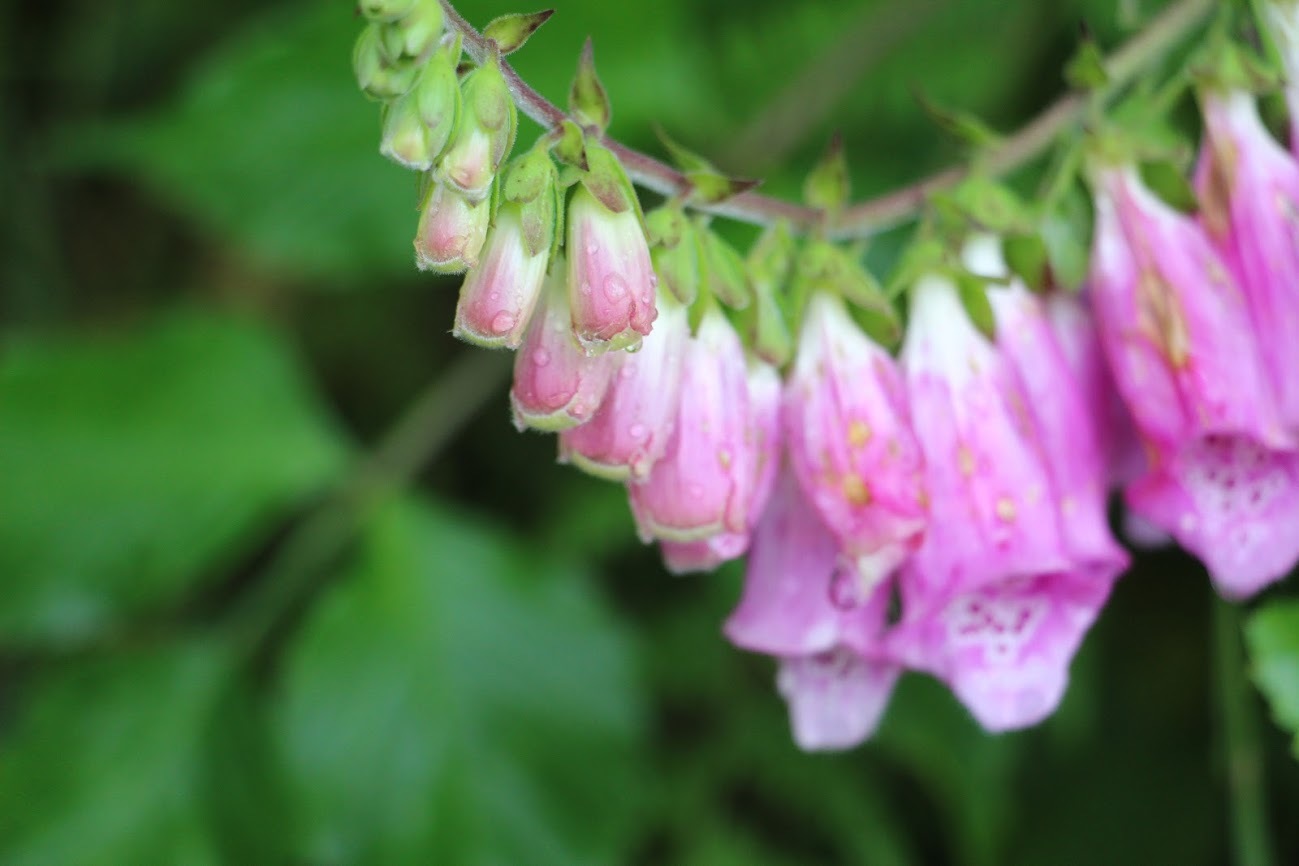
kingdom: Plantae
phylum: Tracheophyta
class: Magnoliopsida
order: Lamiales
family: Plantaginaceae
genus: Digitalis
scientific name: Digitalis purpurea
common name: Foxglove
